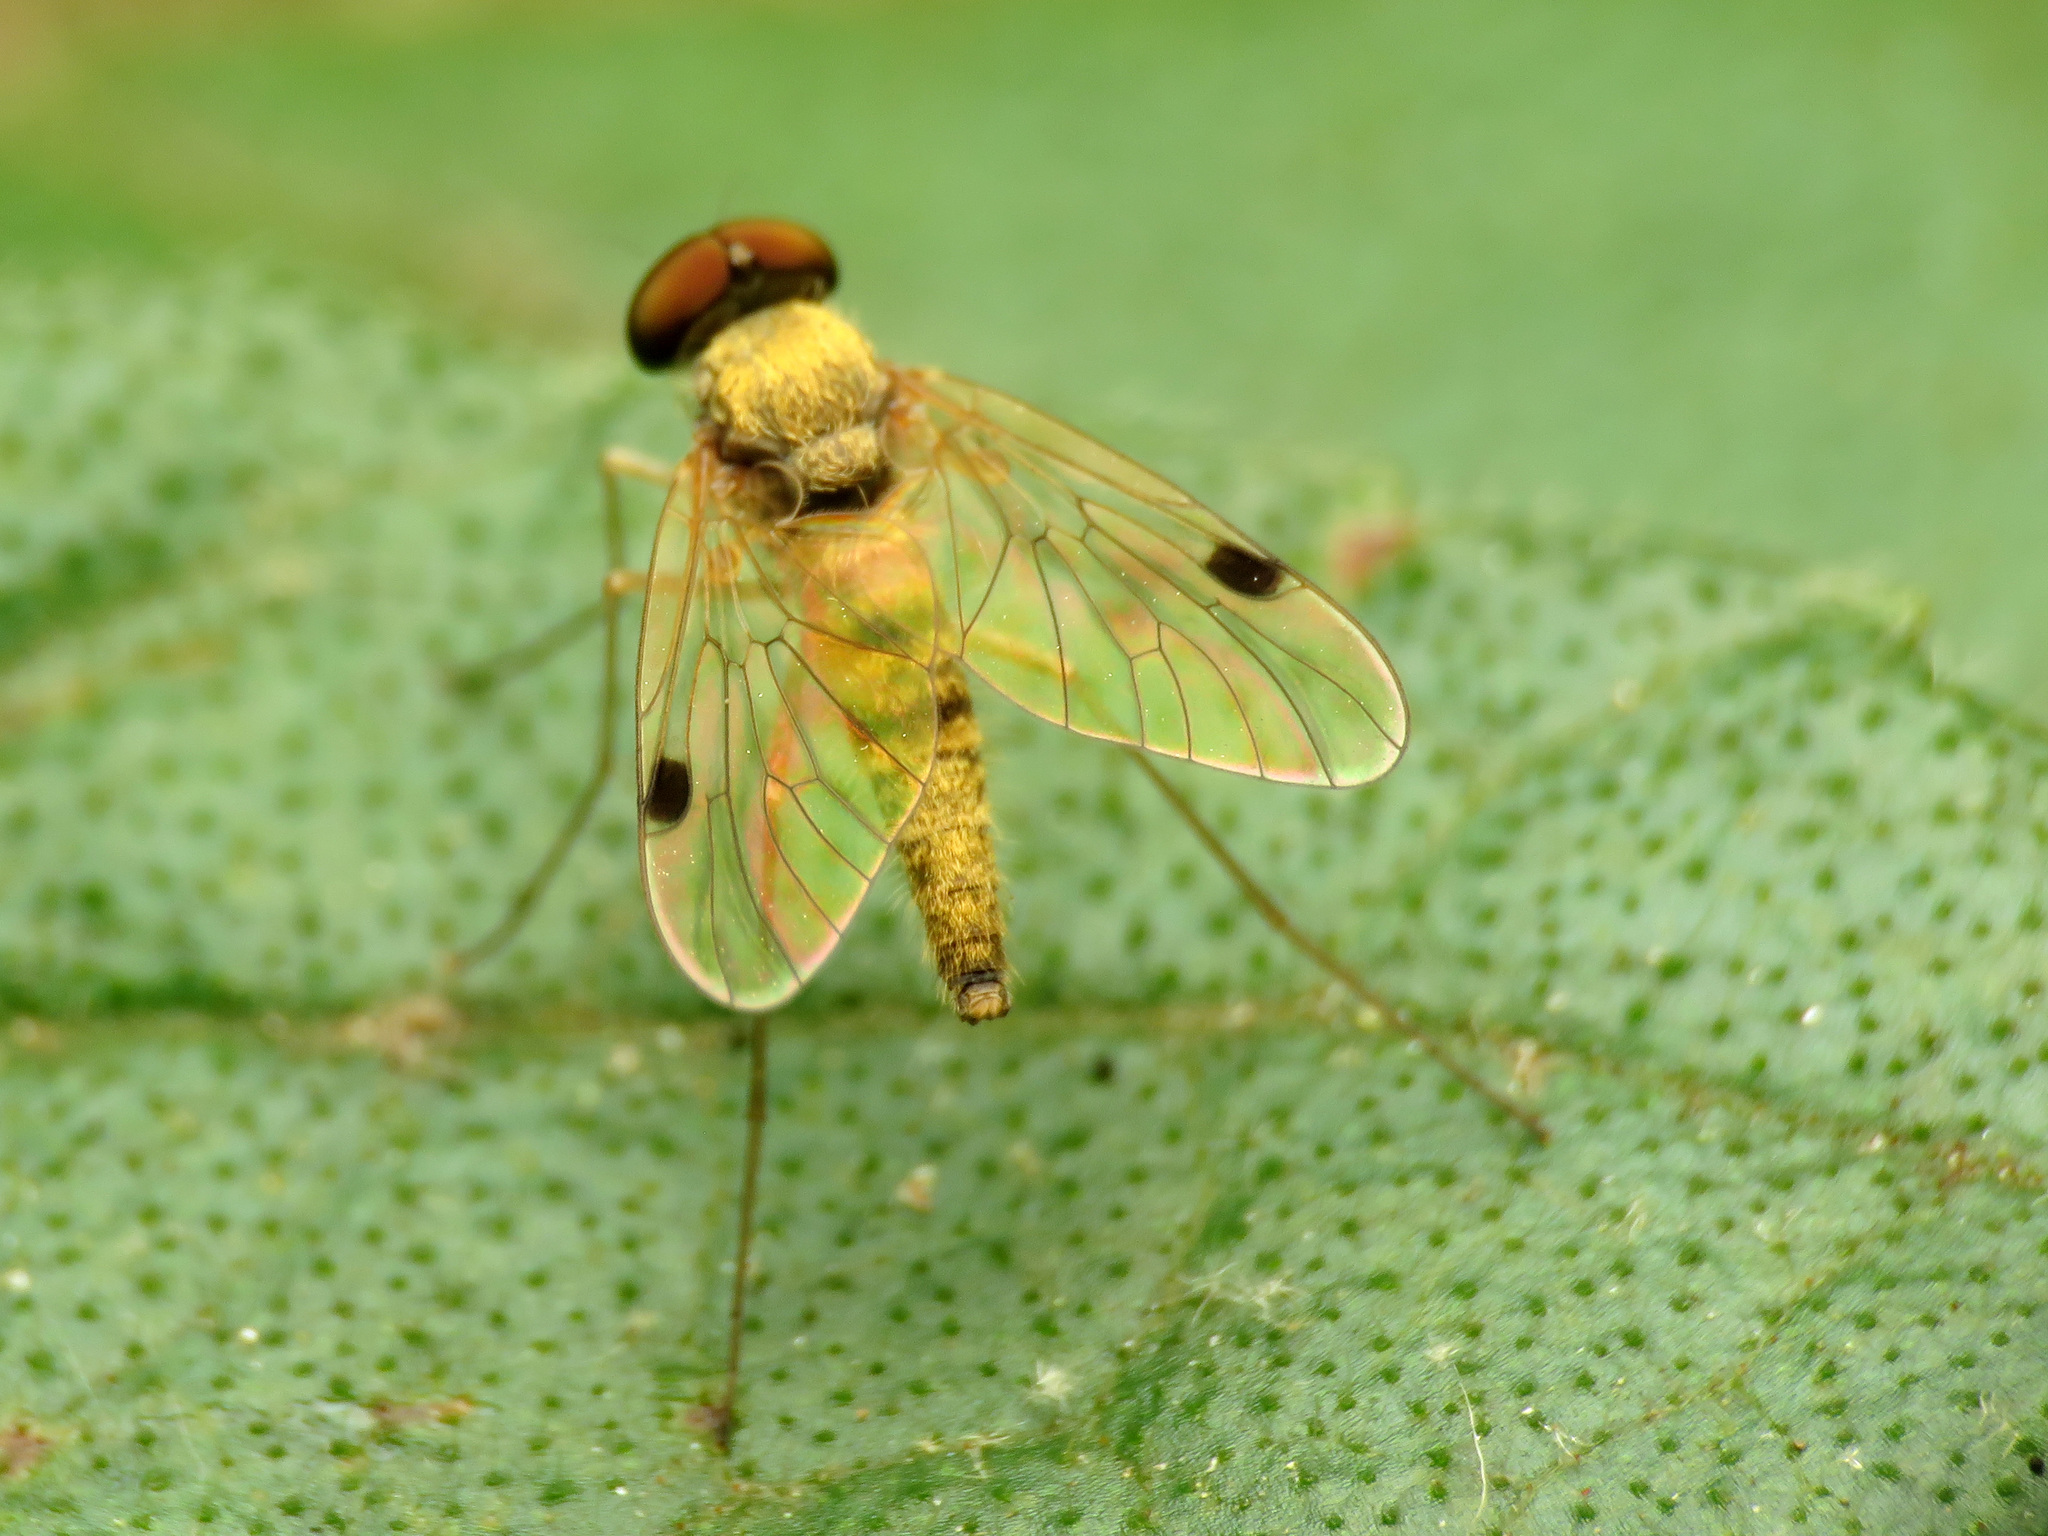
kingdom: Animalia
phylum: Arthropoda
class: Insecta
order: Diptera
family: Rhagionidae
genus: Chrysopilus
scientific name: Chrysopilus modestus
